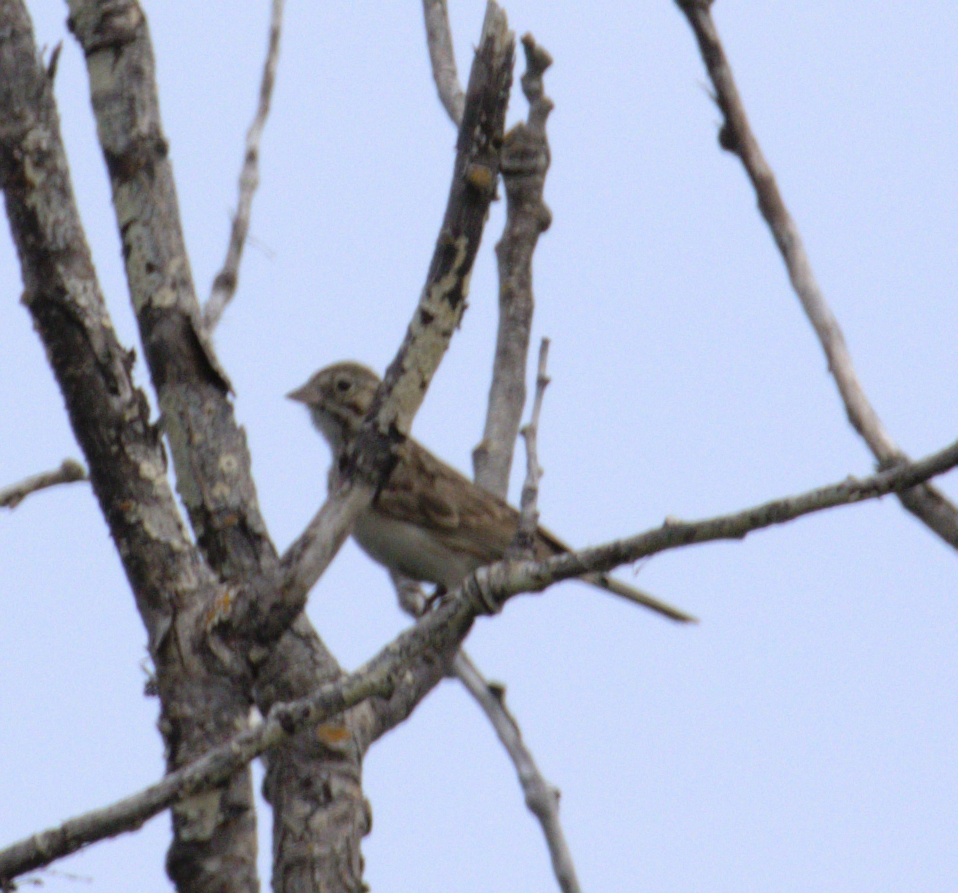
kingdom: Animalia
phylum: Chordata
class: Aves
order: Passeriformes
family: Passerellidae
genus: Pooecetes
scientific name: Pooecetes gramineus
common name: Vesper sparrow
